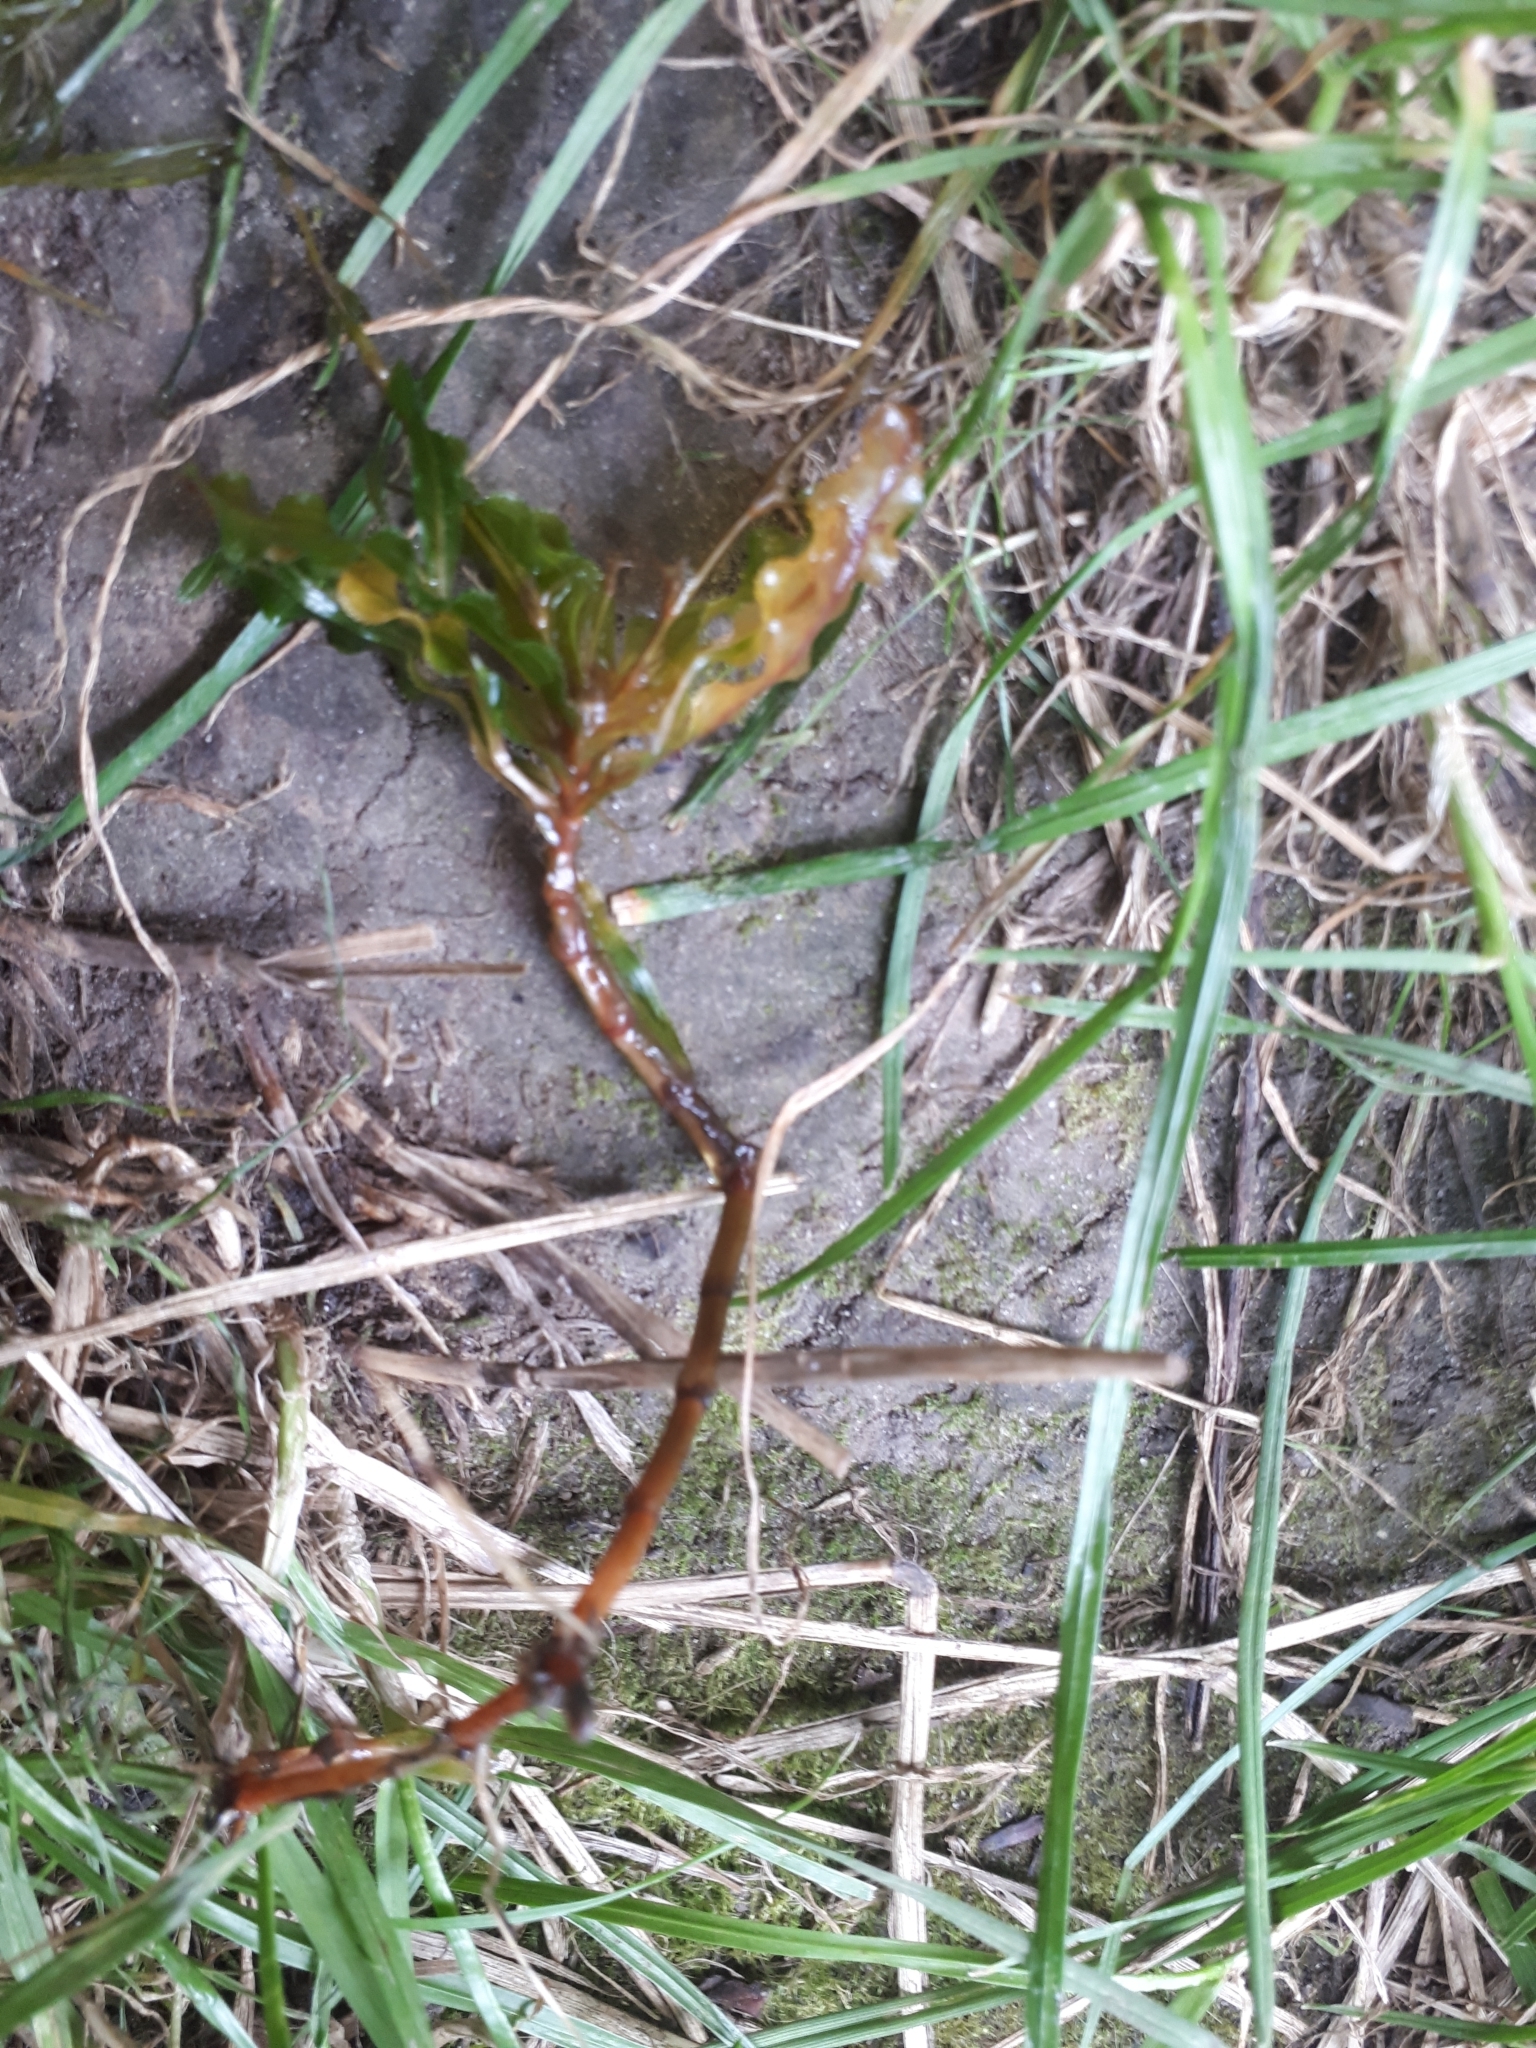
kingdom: Plantae
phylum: Tracheophyta
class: Liliopsida
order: Alismatales
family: Potamogetonaceae
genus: Potamogeton
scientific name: Potamogeton crispus
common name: Curled pondweed
